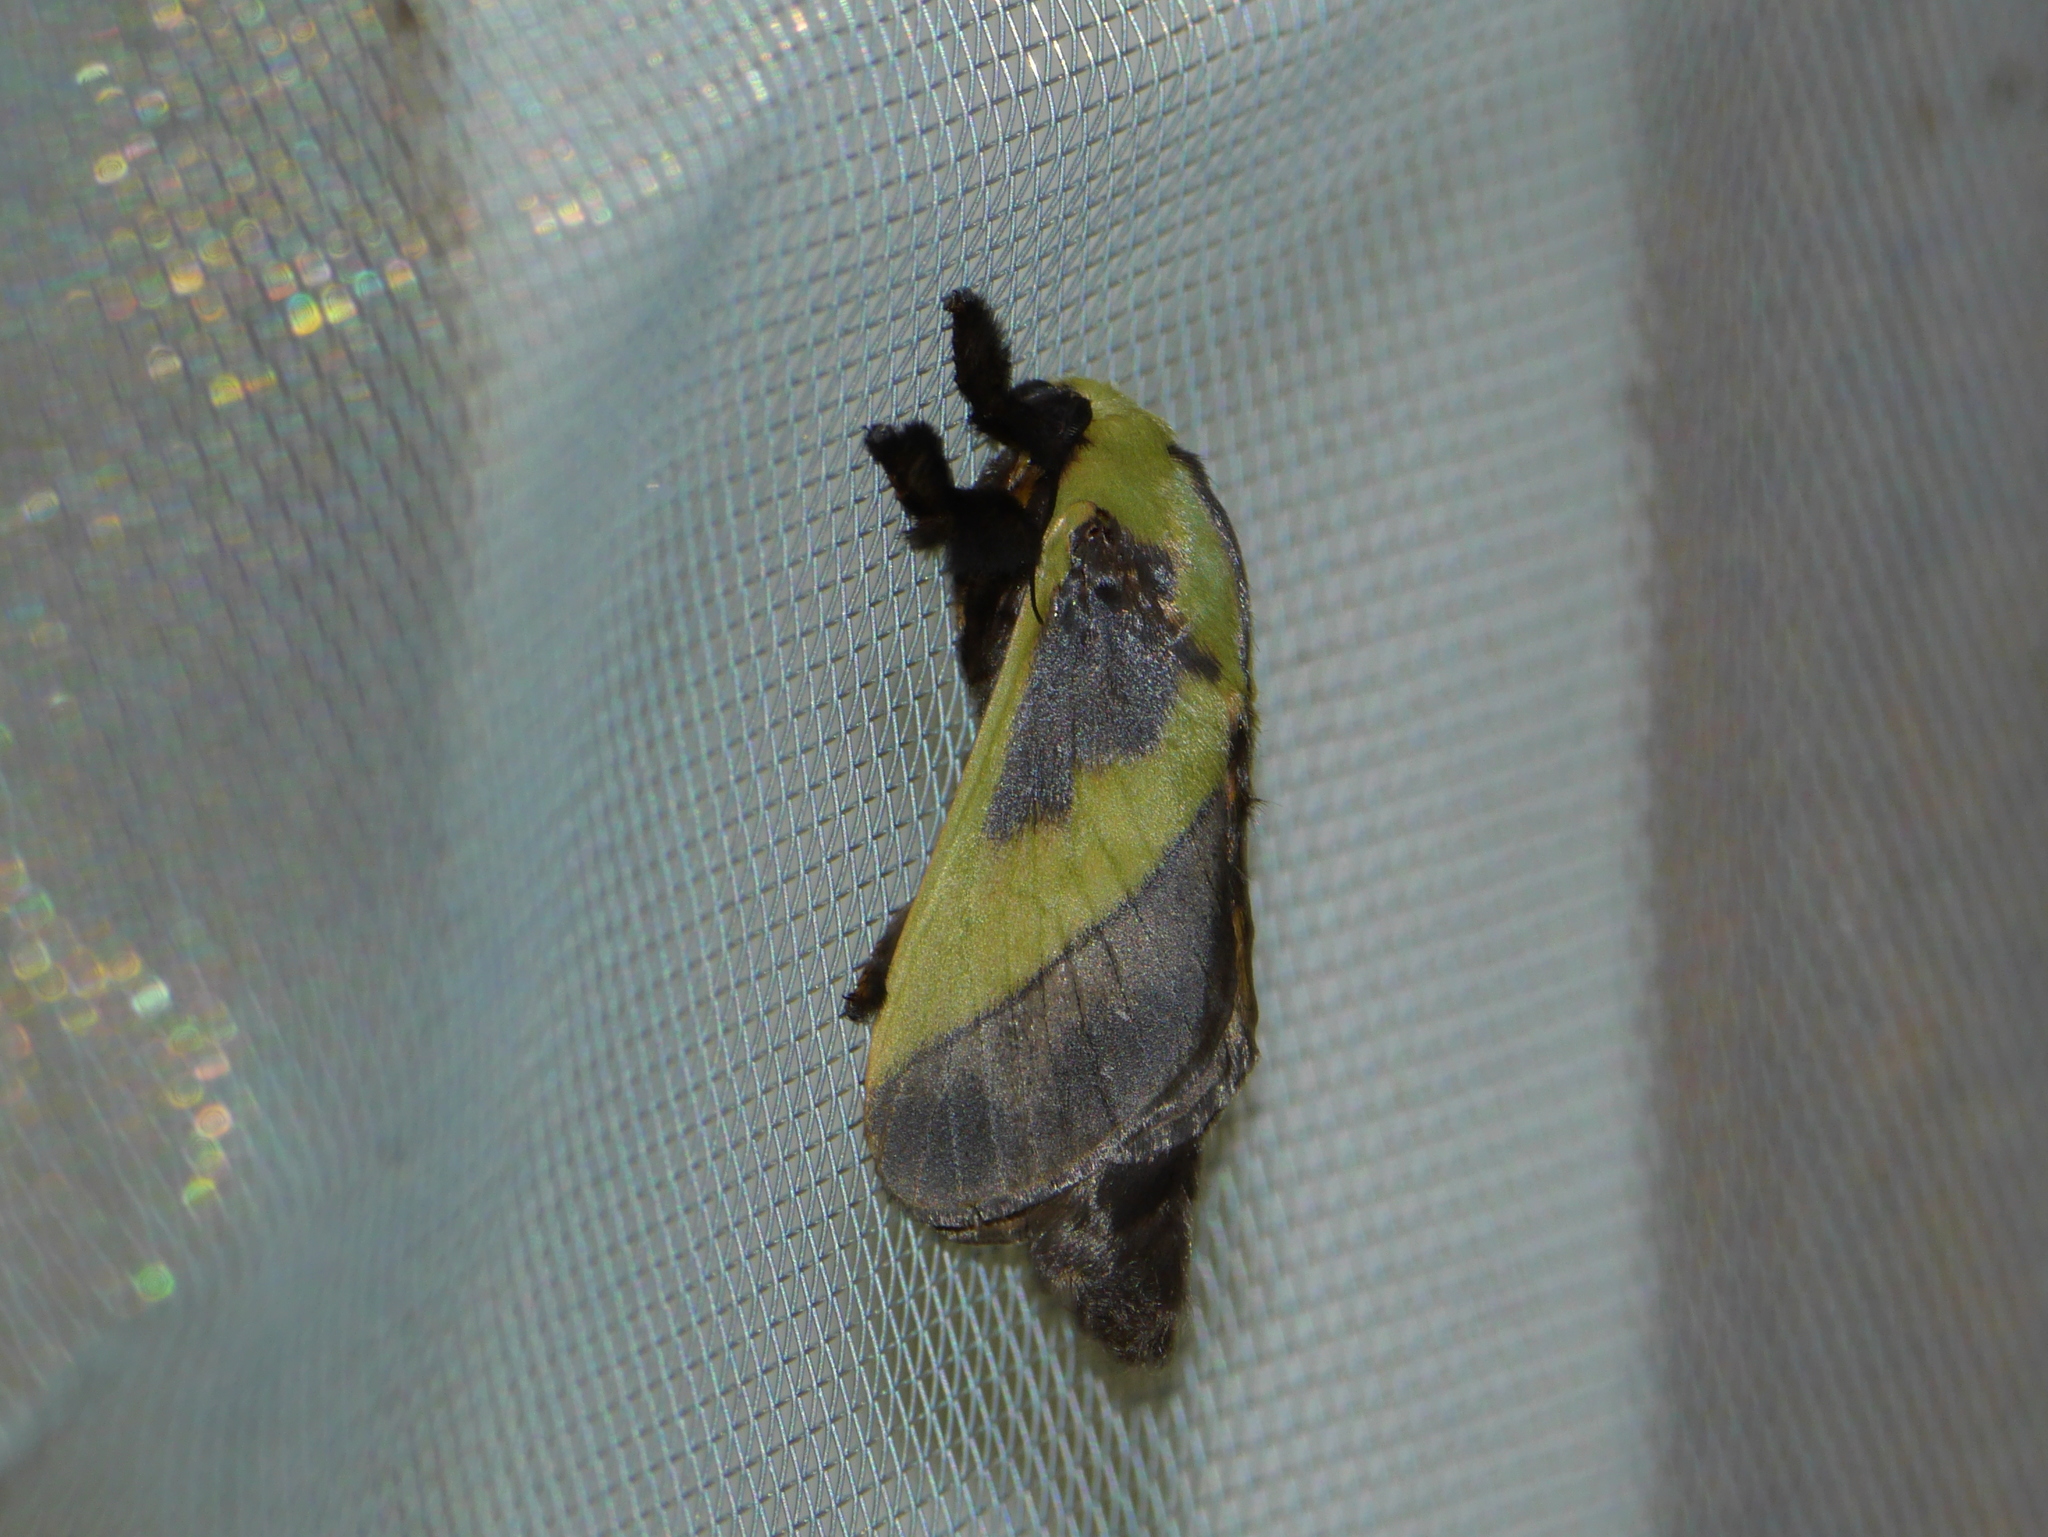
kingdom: Animalia
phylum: Arthropoda
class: Insecta
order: Lepidoptera
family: Limacodidae
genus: Stroter
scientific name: Stroter capillatus
